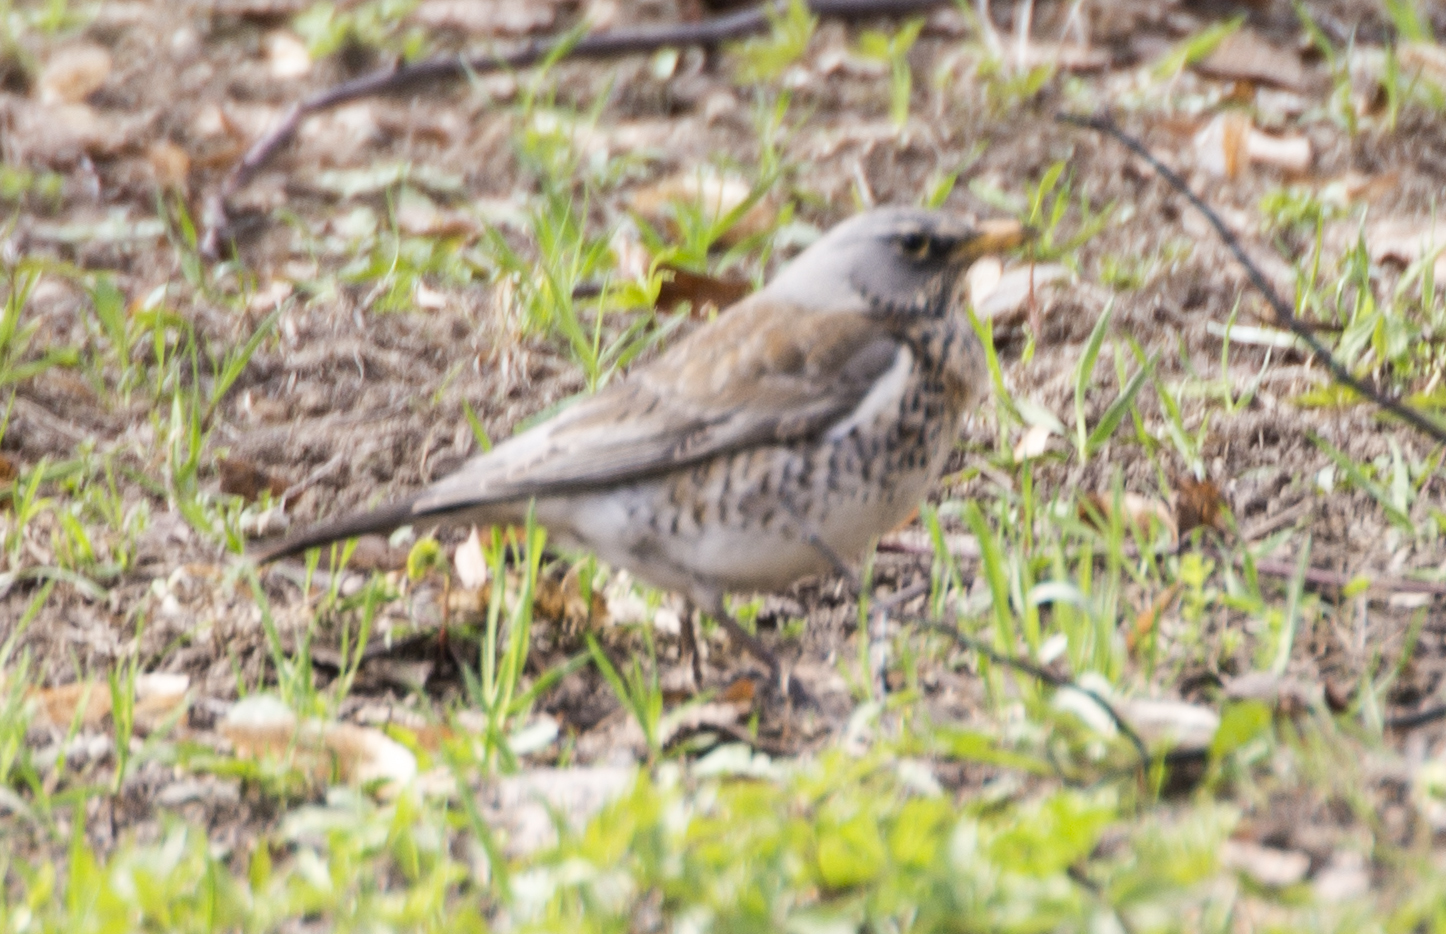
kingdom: Animalia
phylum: Chordata
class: Aves
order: Passeriformes
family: Turdidae
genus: Turdus
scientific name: Turdus pilaris
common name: Fieldfare
